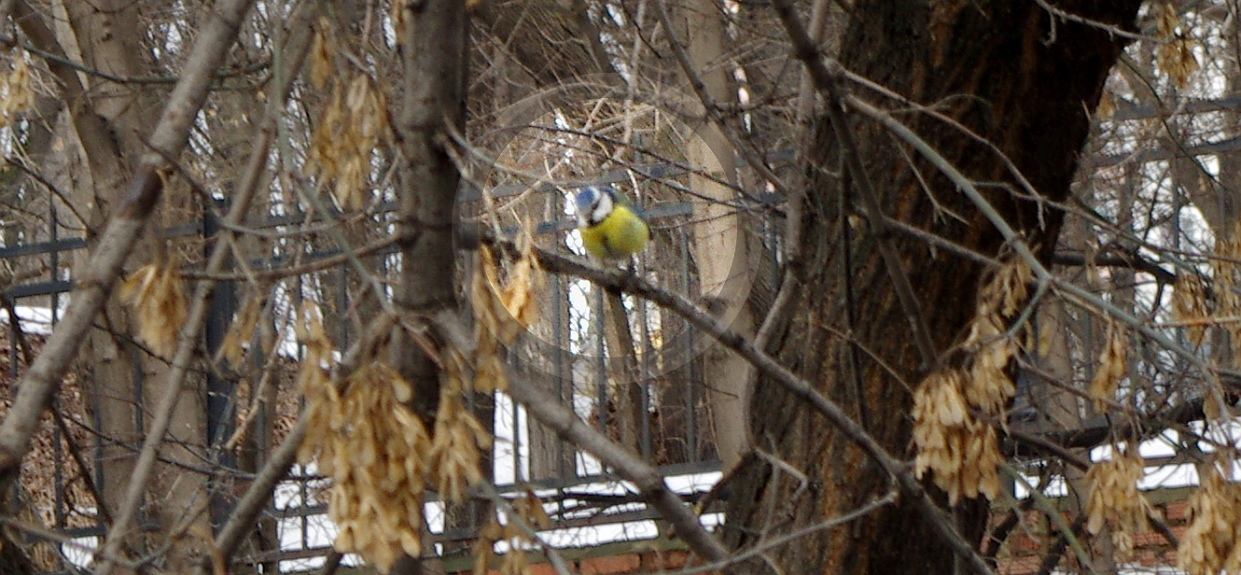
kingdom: Animalia
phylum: Chordata
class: Aves
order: Passeriformes
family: Paridae
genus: Cyanistes
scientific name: Cyanistes caeruleus
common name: Eurasian blue tit
